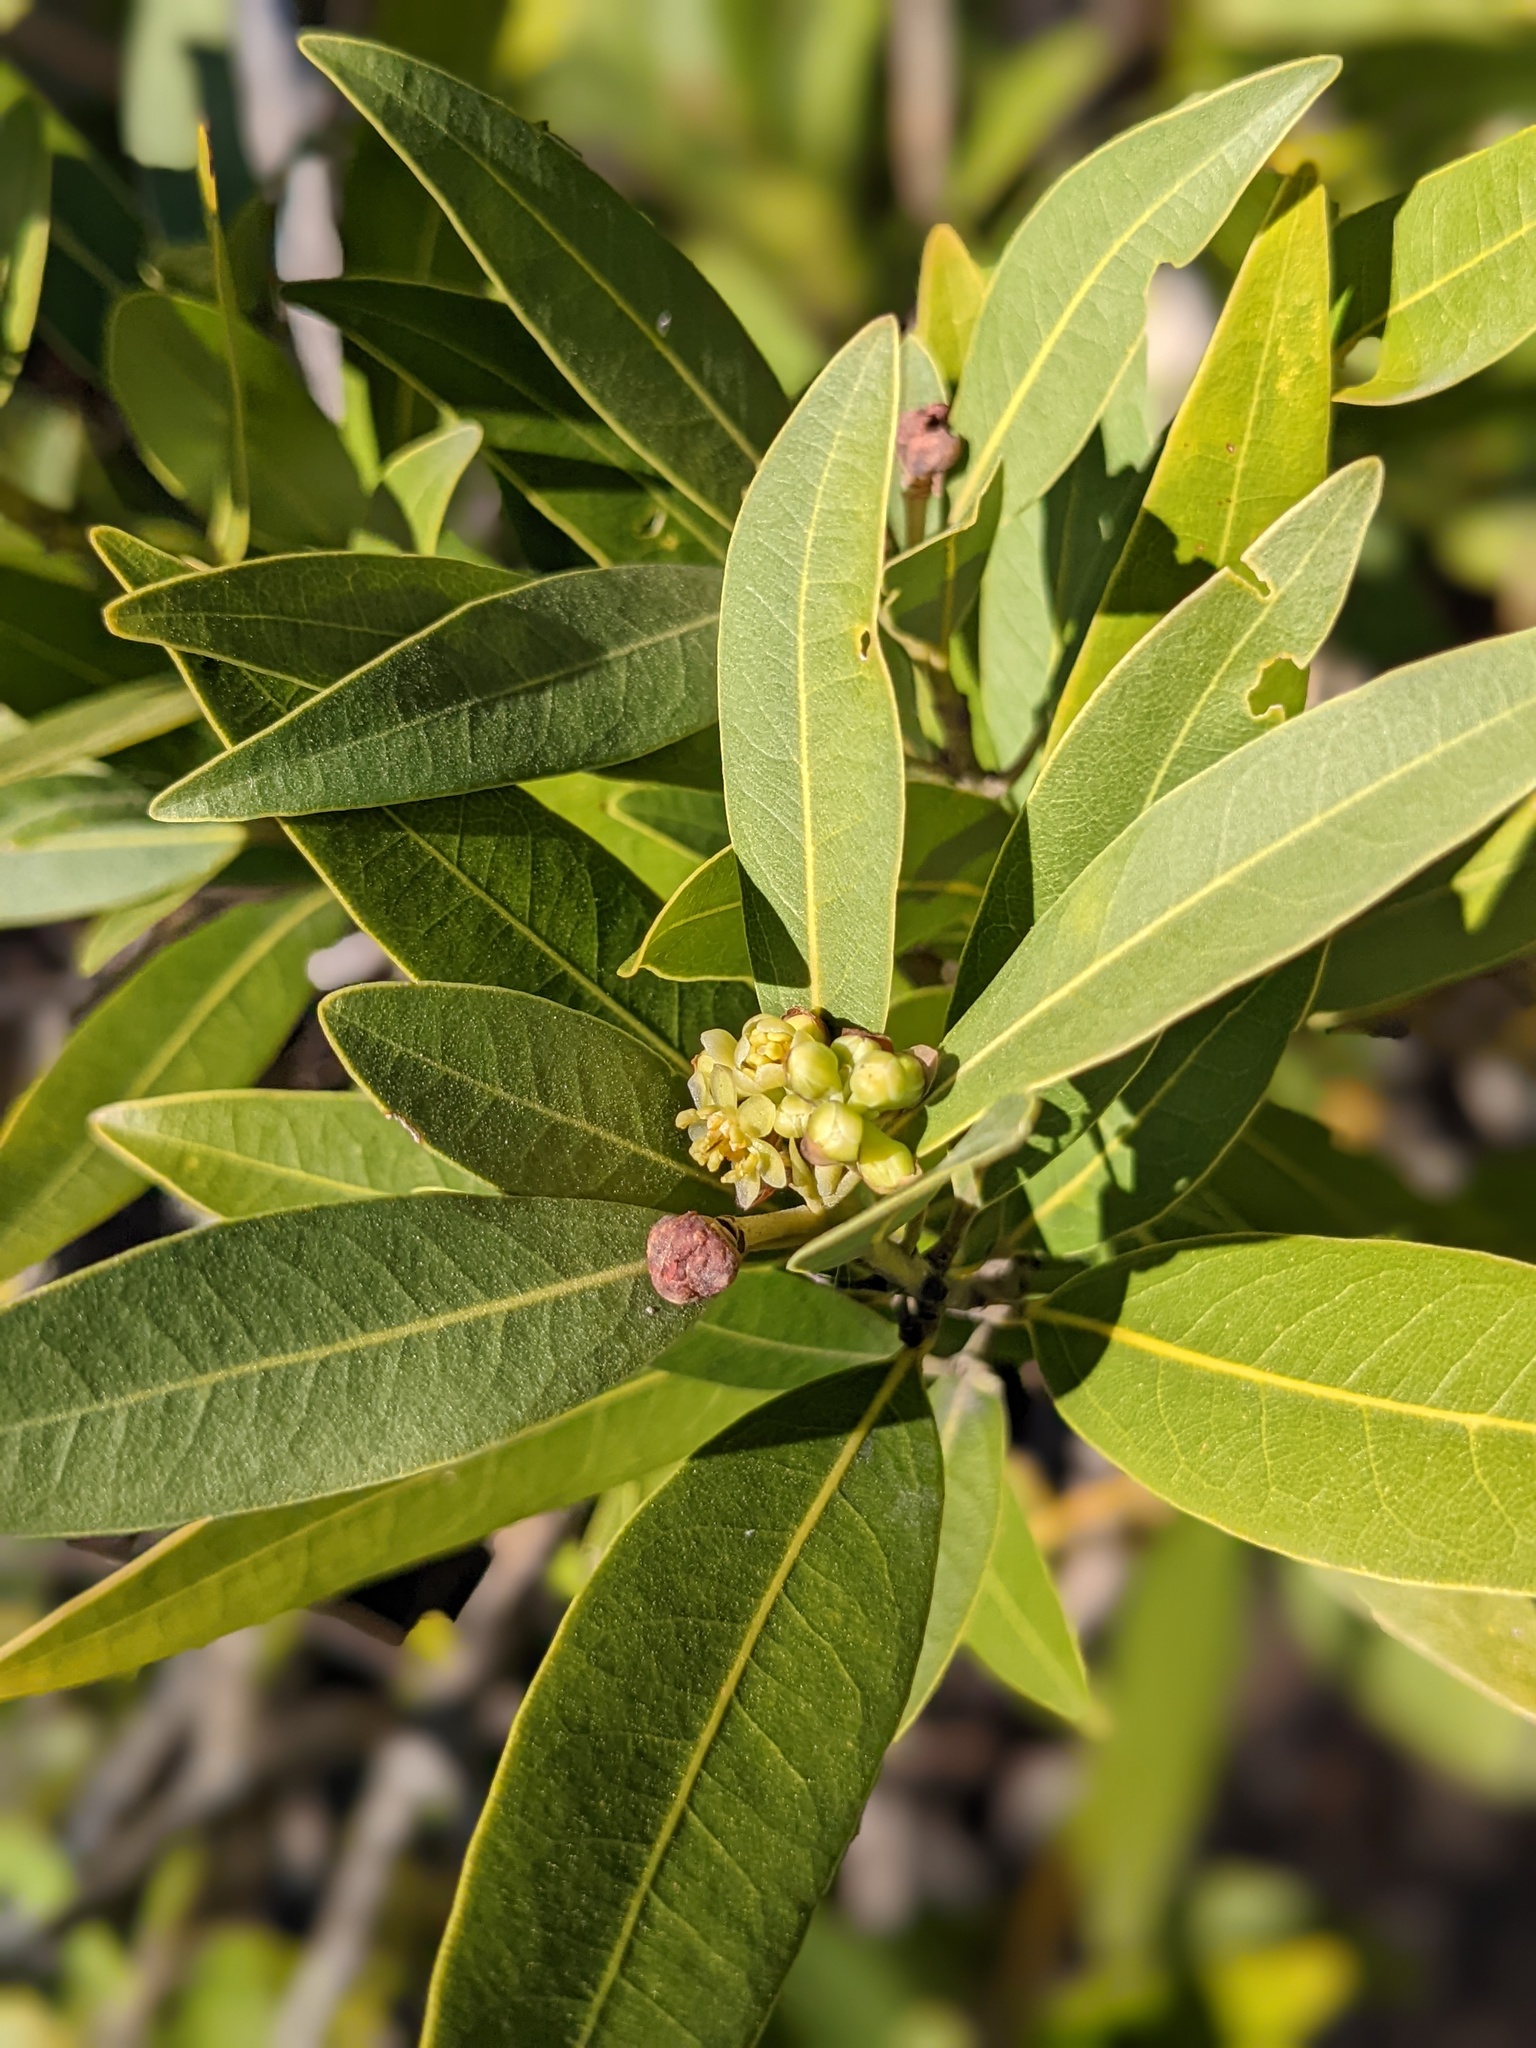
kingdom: Plantae
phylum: Tracheophyta
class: Magnoliopsida
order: Laurales
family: Lauraceae
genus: Umbellularia
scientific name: Umbellularia californica
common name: California bay
